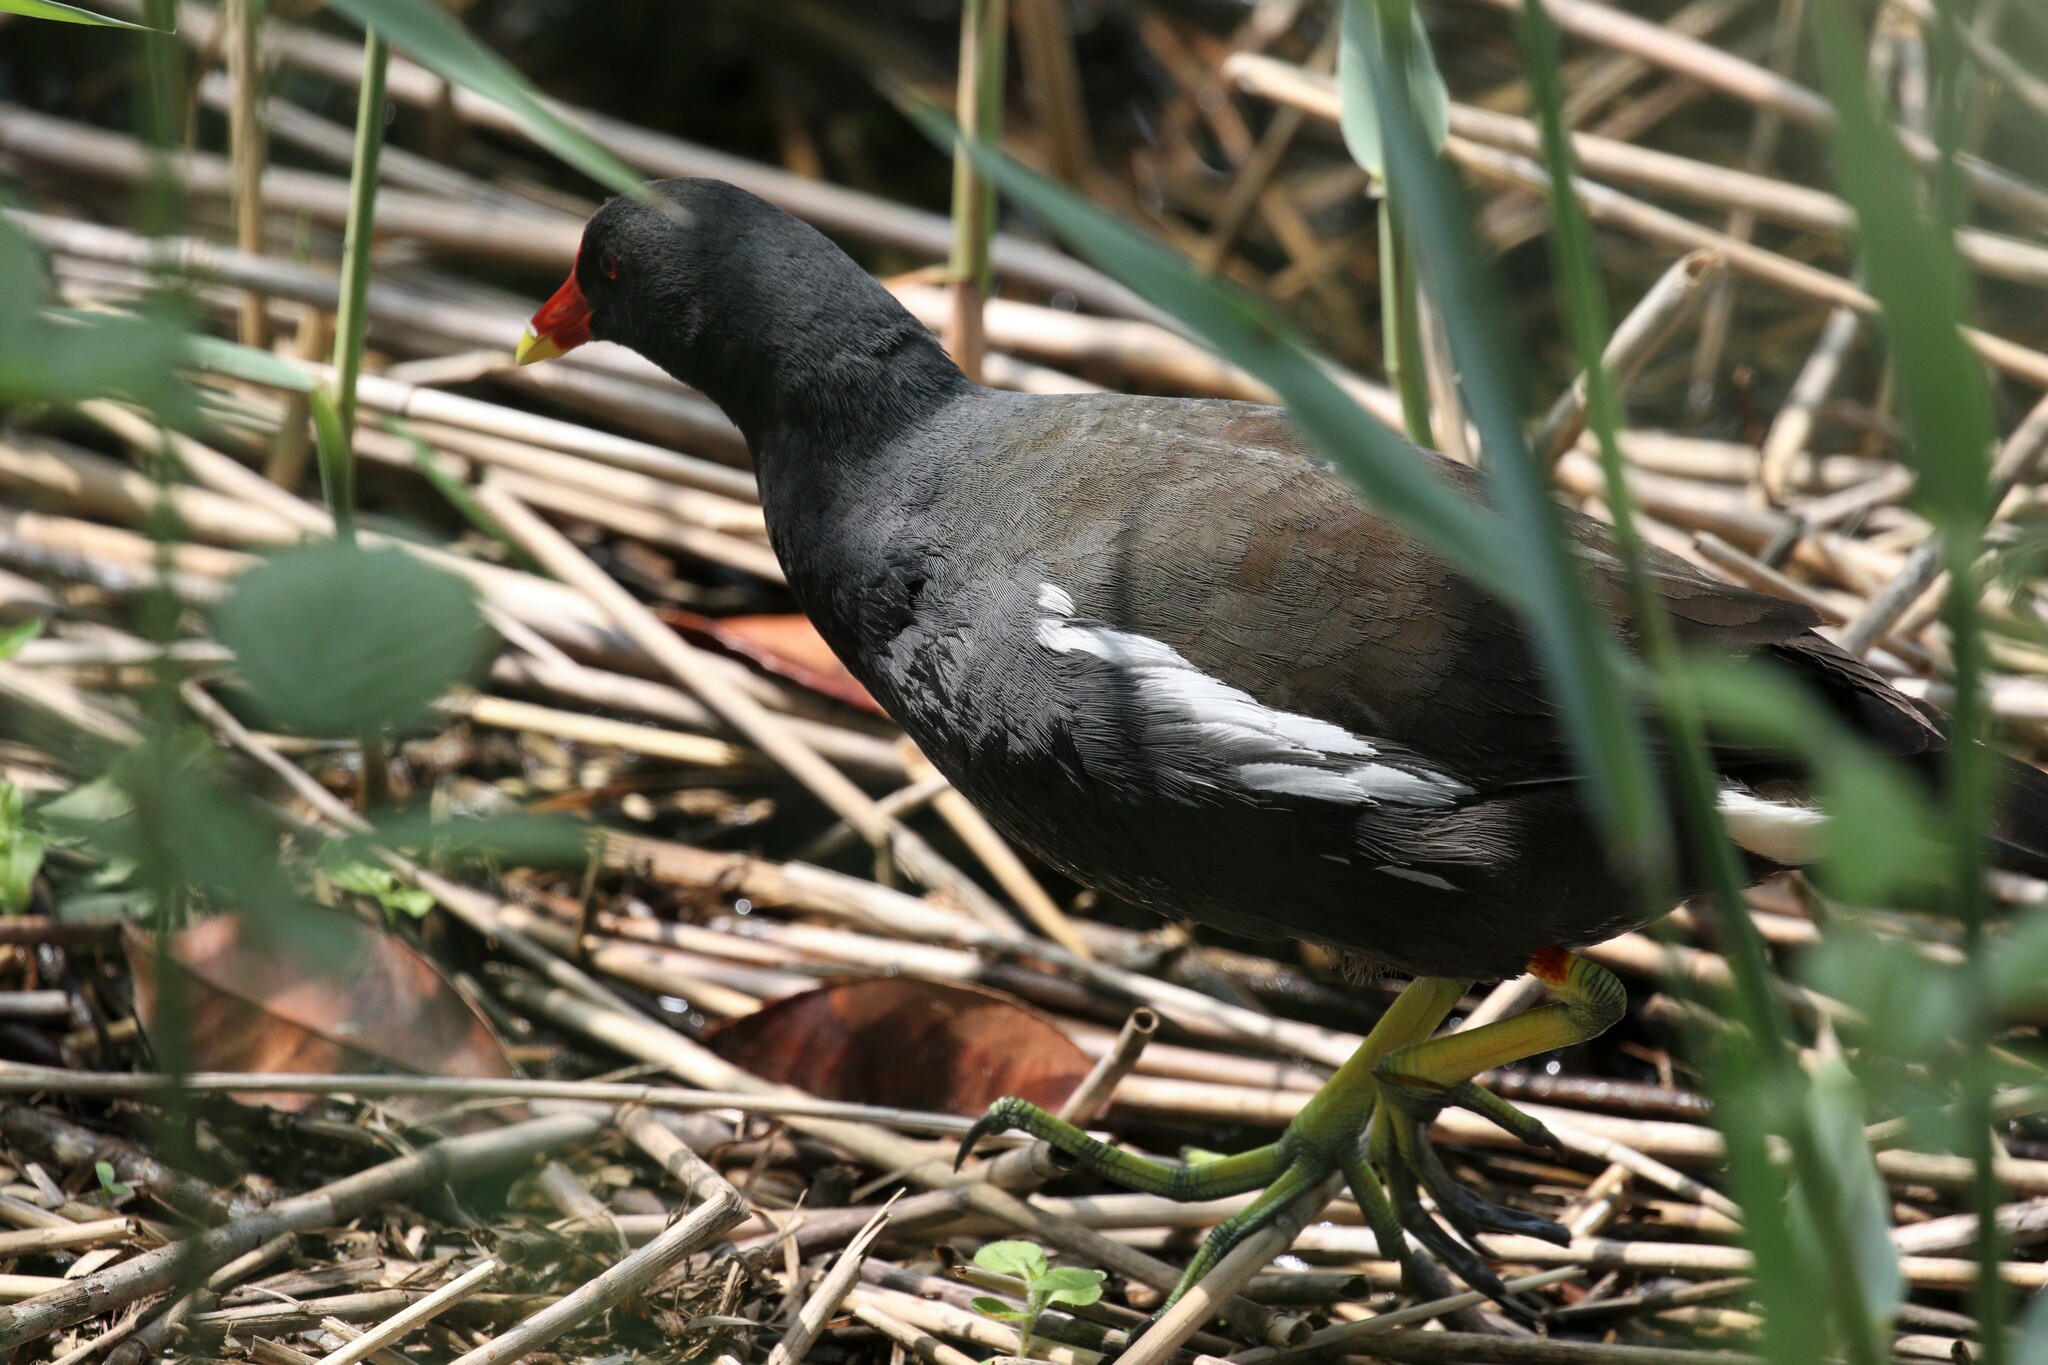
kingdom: Animalia
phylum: Chordata
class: Aves
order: Gruiformes
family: Rallidae
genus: Gallinula
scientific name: Gallinula chloropus
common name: Common moorhen
